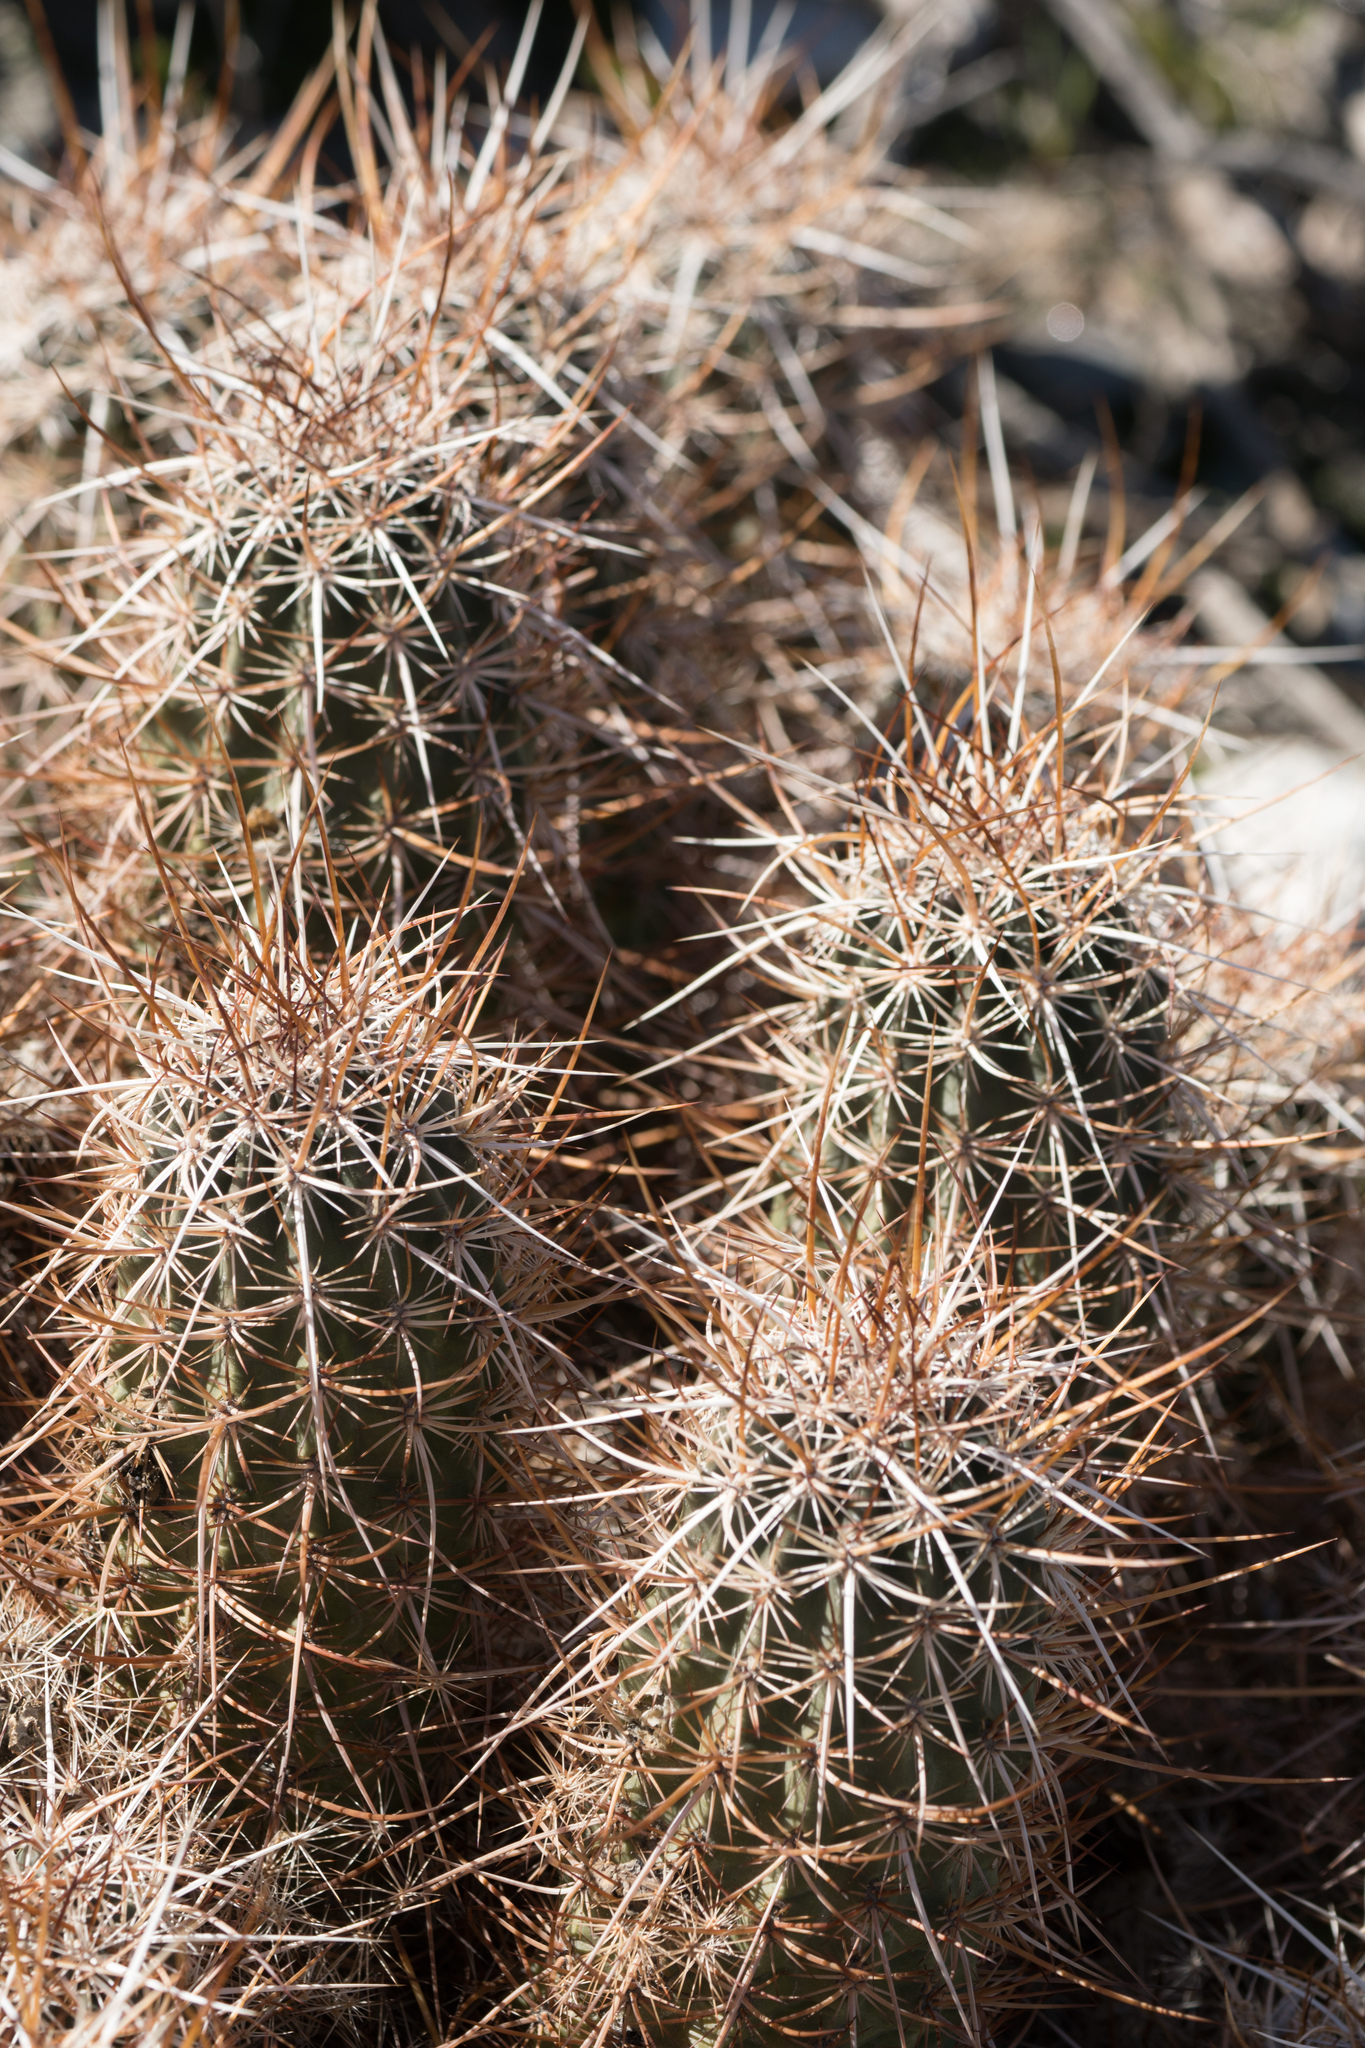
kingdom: Plantae
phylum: Tracheophyta
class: Magnoliopsida
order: Caryophyllales
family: Cactaceae
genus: Echinocereus
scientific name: Echinocereus engelmannii
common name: Engelmann's hedgehog cactus
